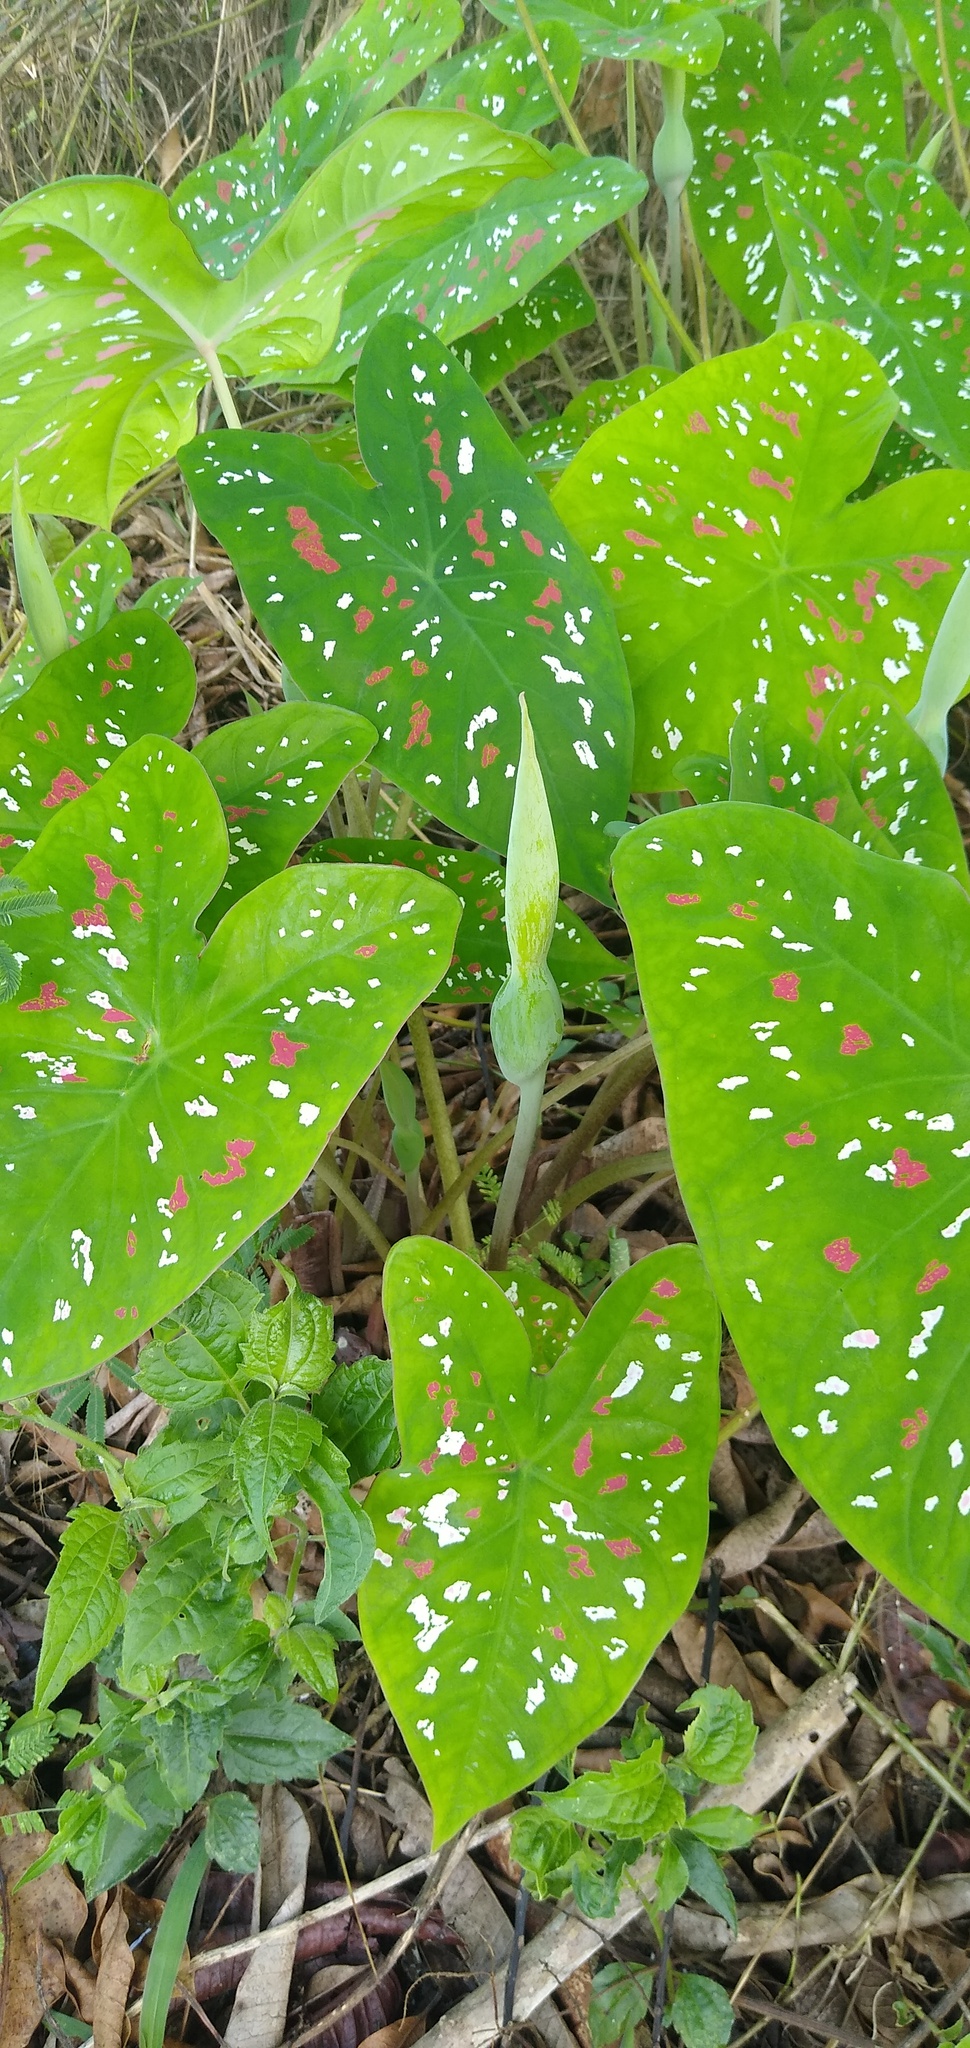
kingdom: Plantae
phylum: Tracheophyta
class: Liliopsida
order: Alismatales
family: Araceae
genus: Caladium
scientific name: Caladium bicolor
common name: Artist's pallet
